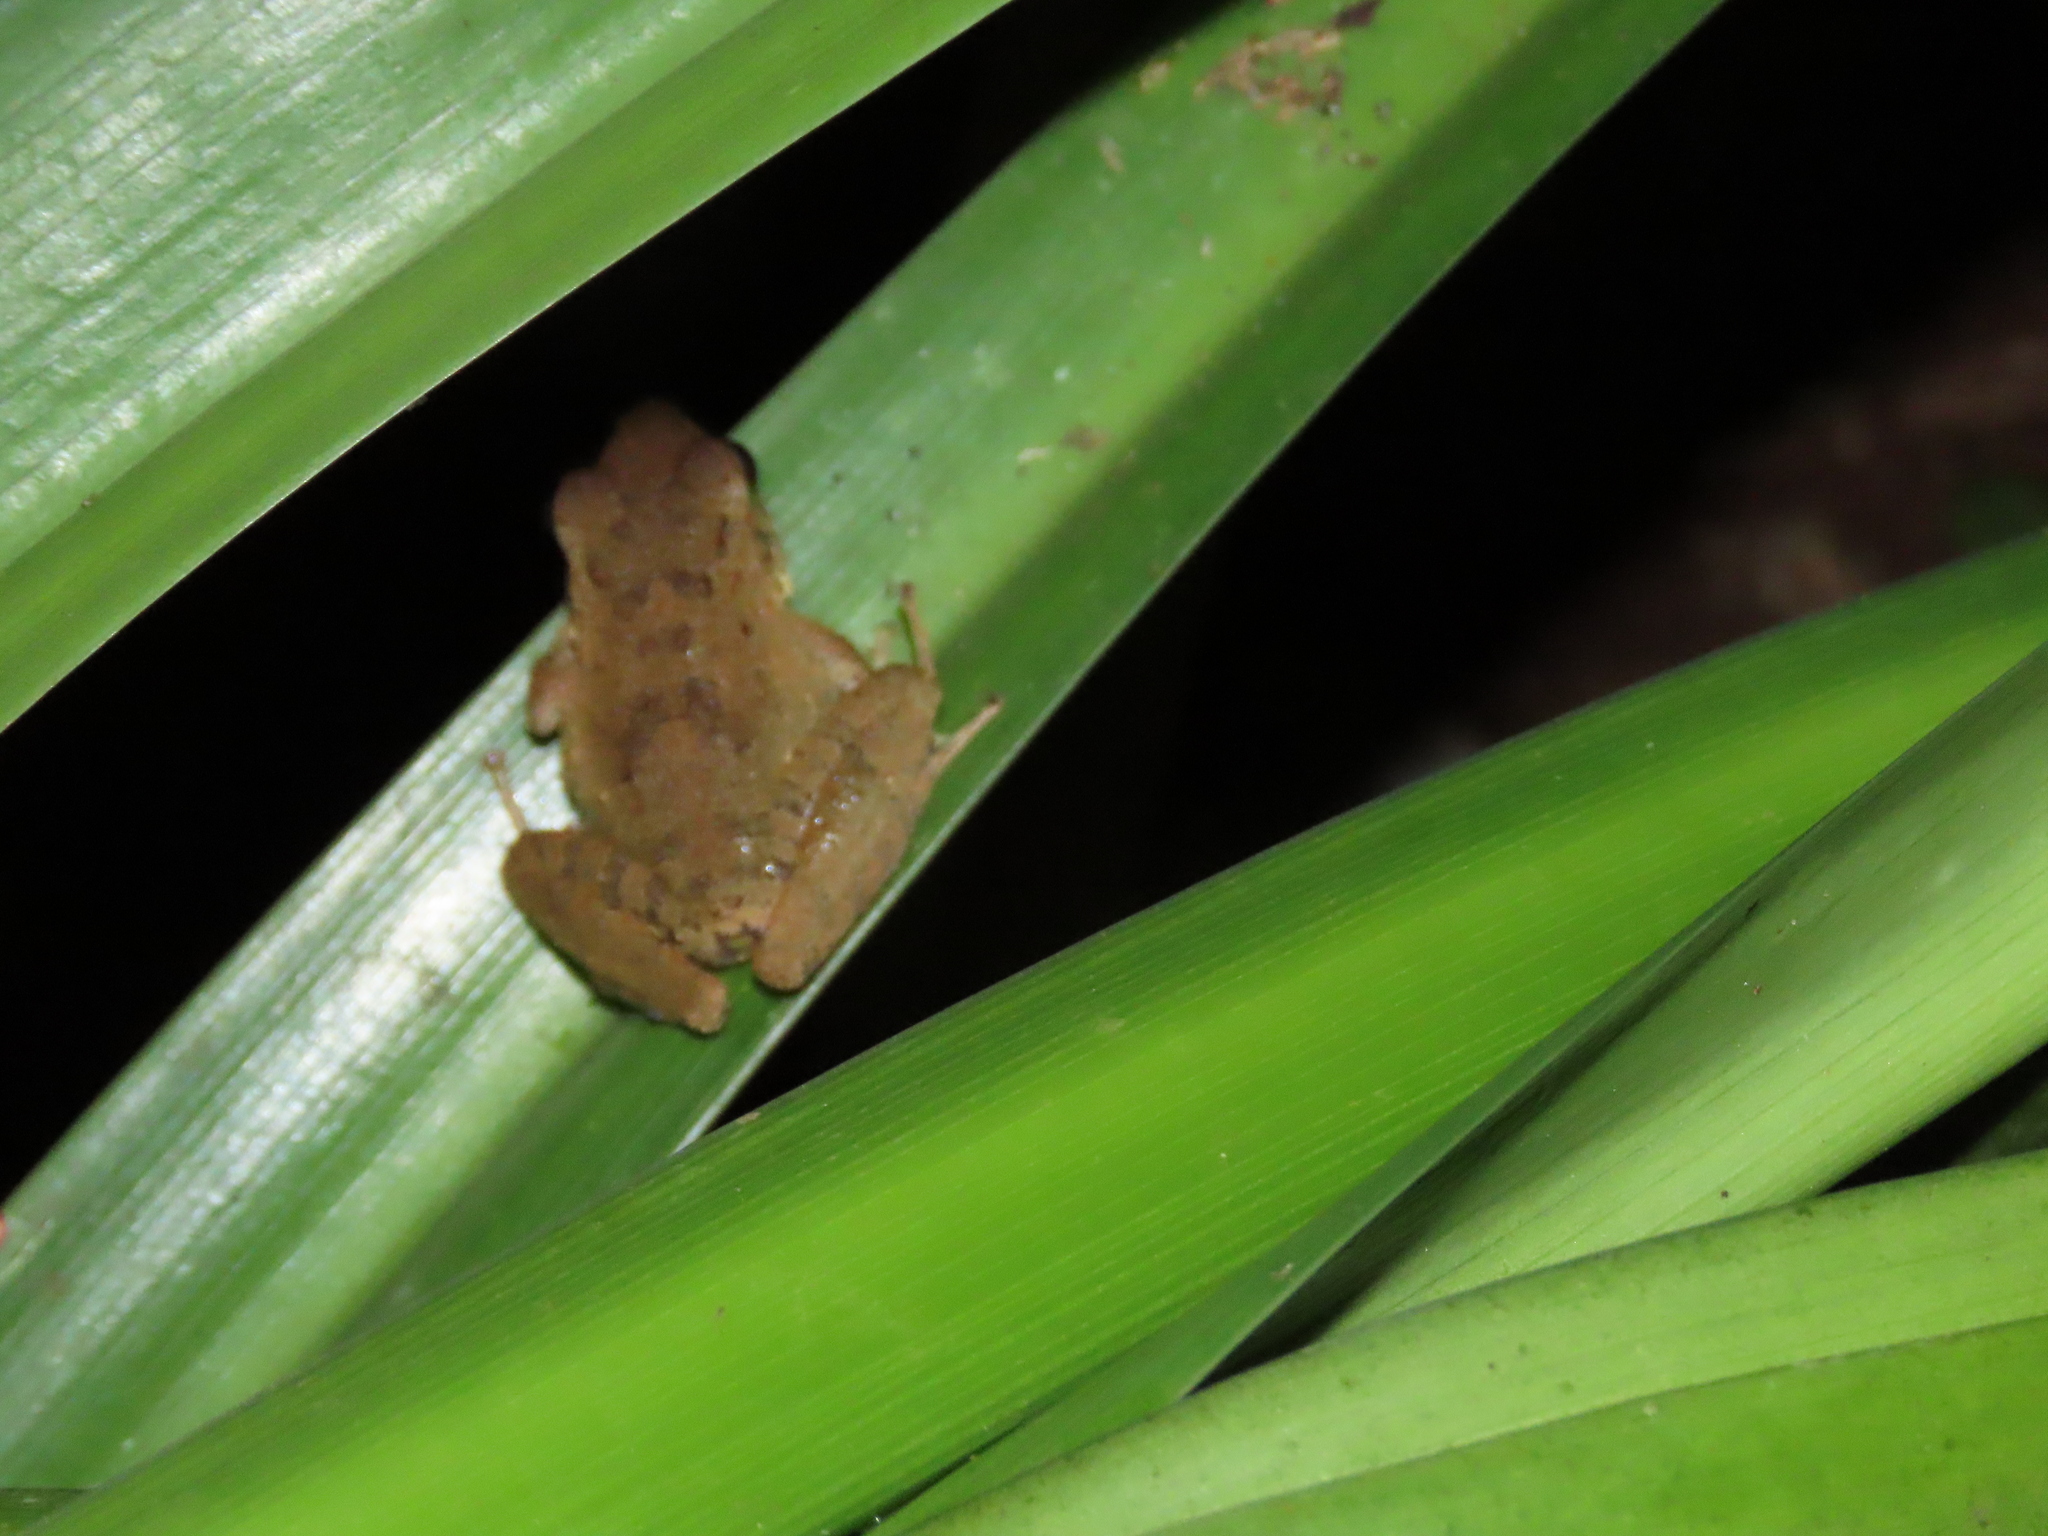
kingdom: Animalia
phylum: Chordata
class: Amphibia
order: Anura
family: Craugastoridae
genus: Craugastor
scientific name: Craugastor fitzingeri
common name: Fitzinger's robber frog
